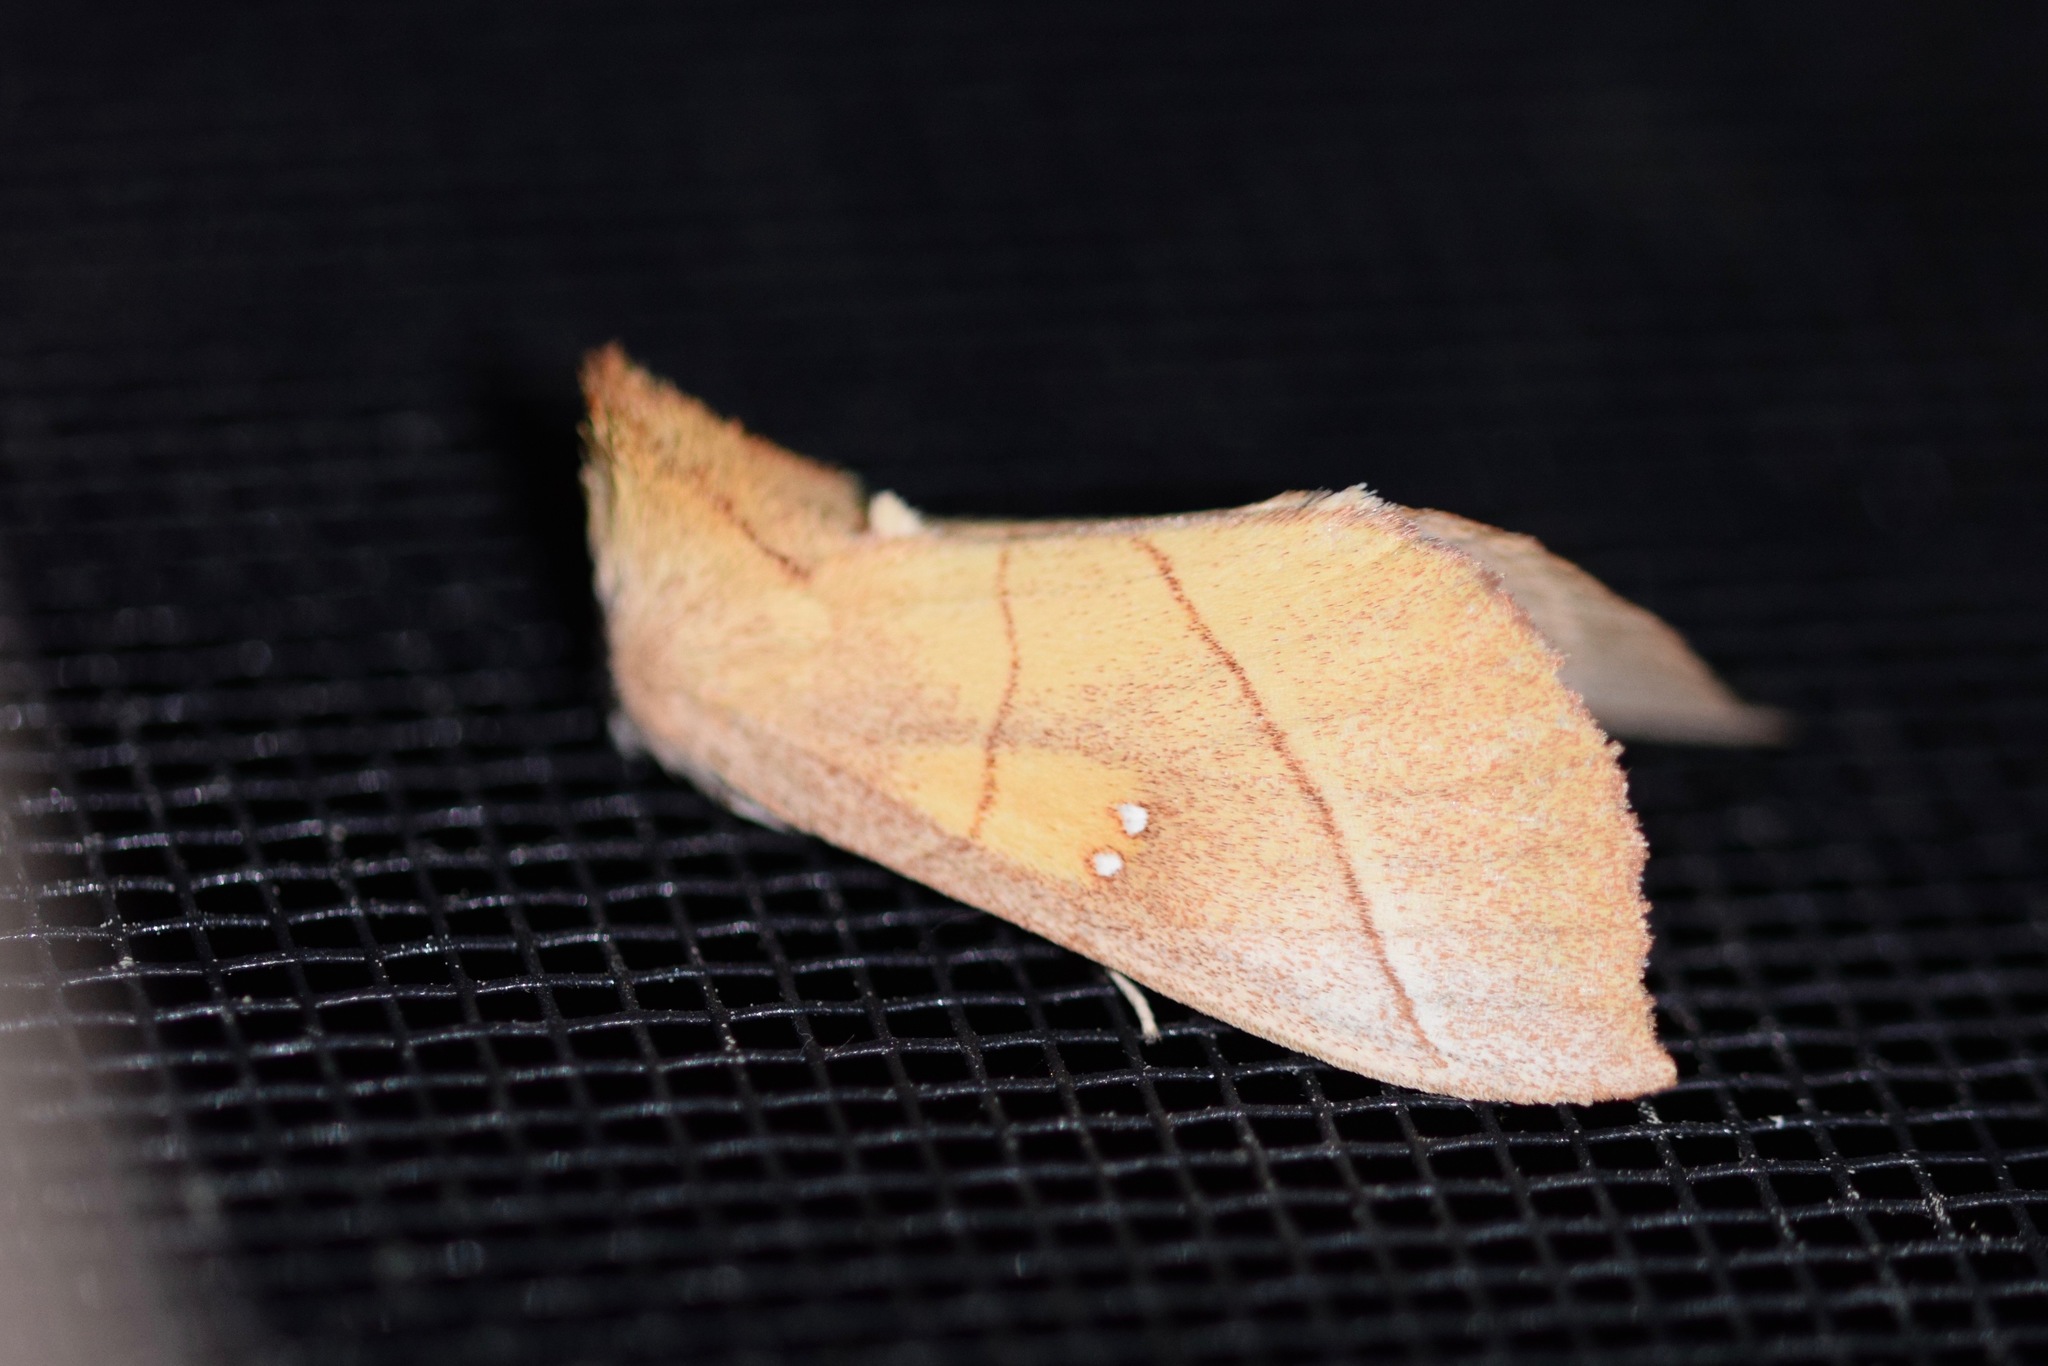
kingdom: Animalia
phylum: Arthropoda
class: Insecta
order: Lepidoptera
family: Notodontidae
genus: Nadata
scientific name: Nadata gibbosa
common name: White-dotted prominent
